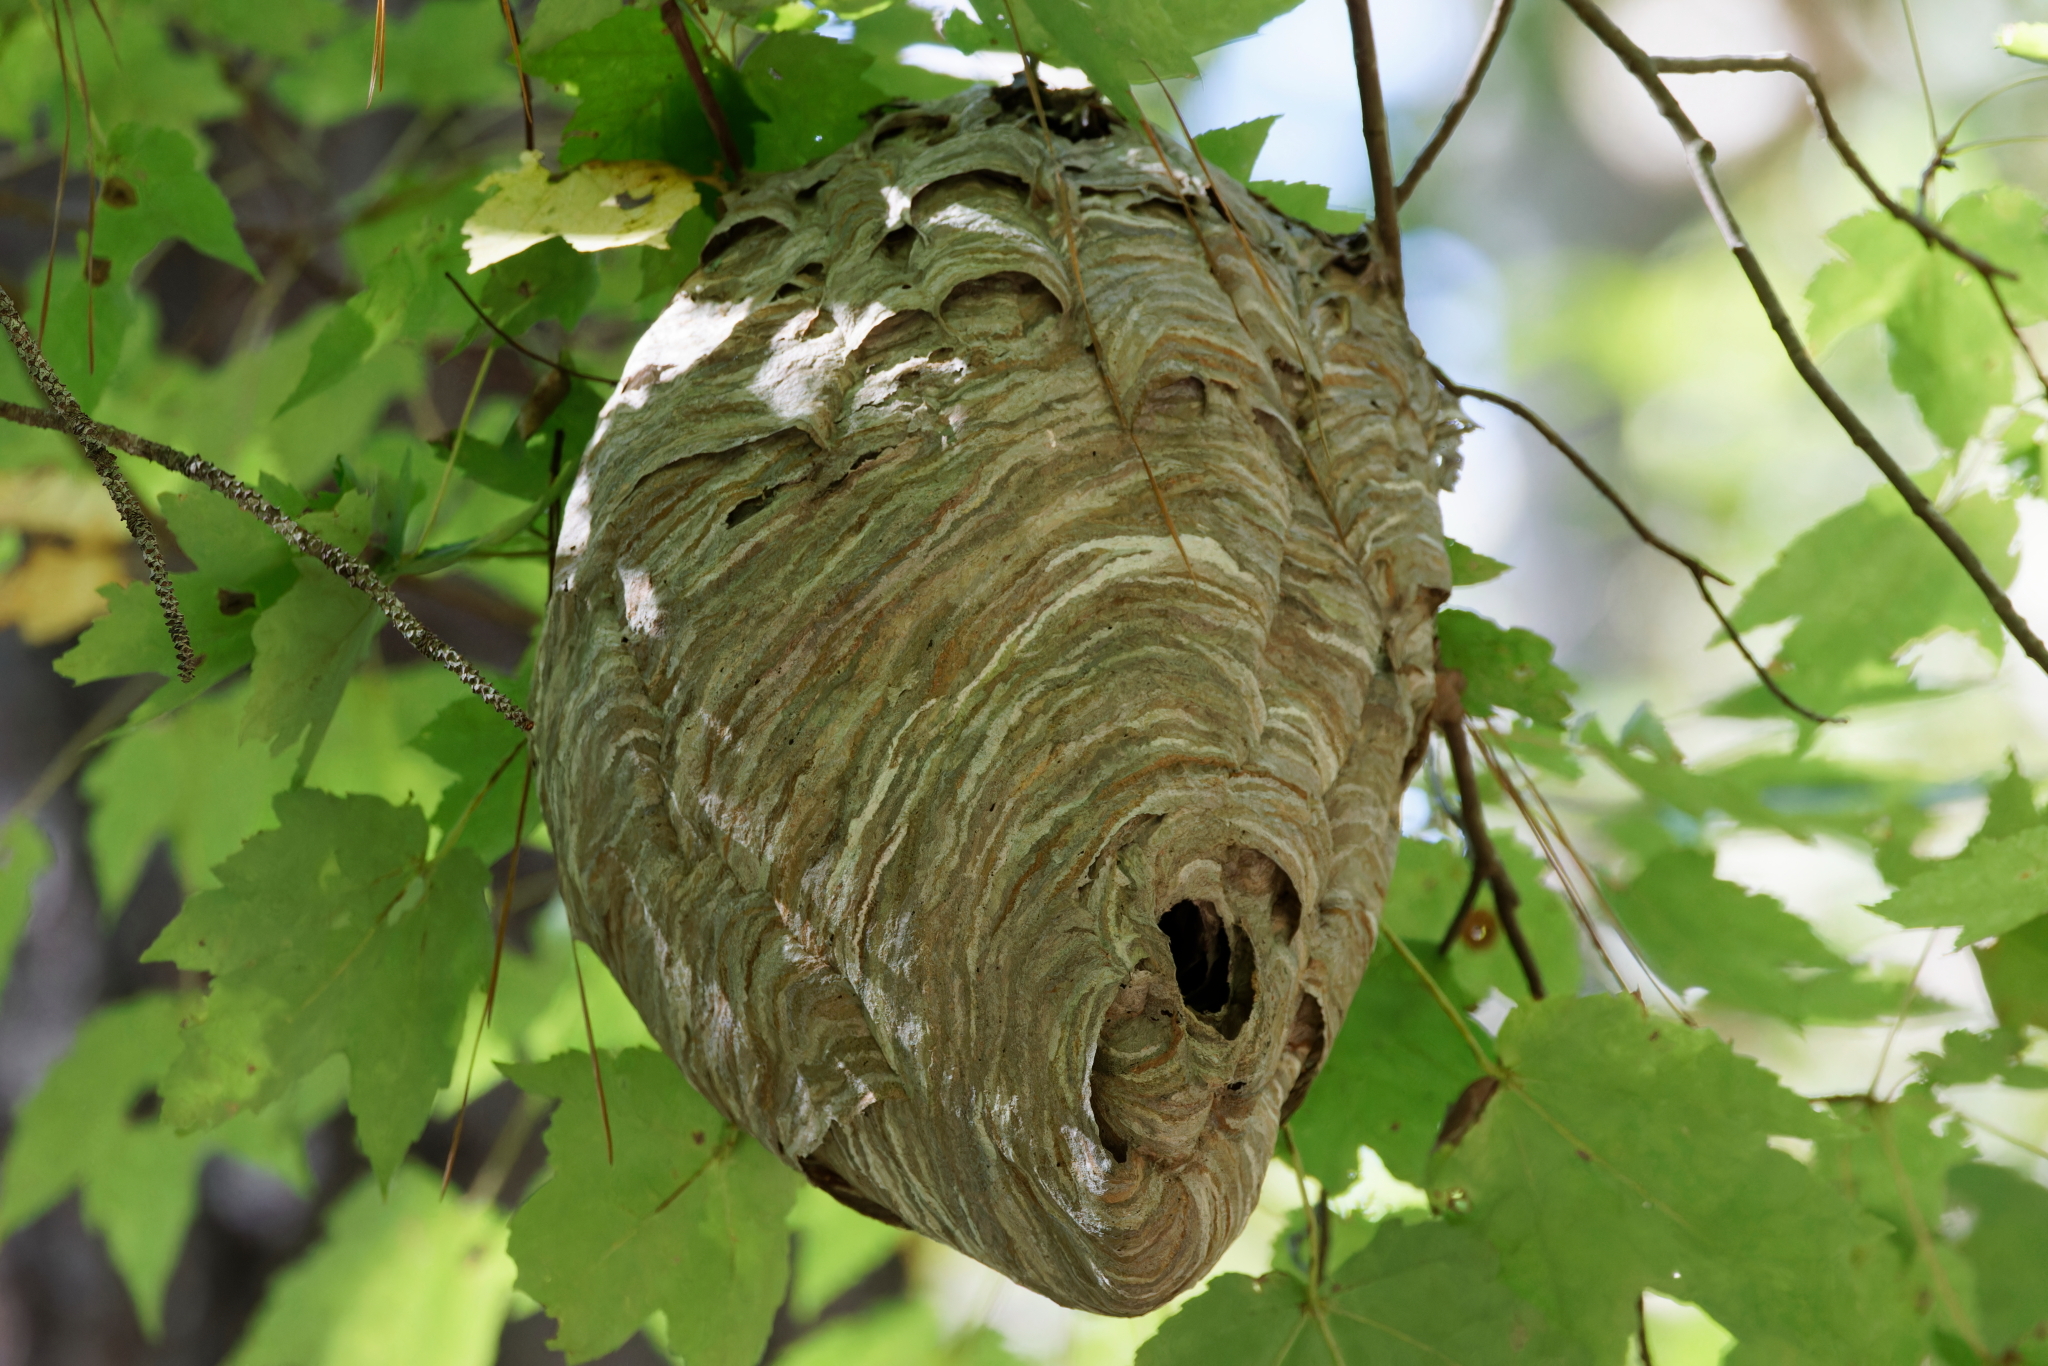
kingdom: Animalia
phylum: Arthropoda
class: Insecta
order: Hymenoptera
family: Vespidae
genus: Dolichovespula
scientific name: Dolichovespula maculata
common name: Bald-faced hornet
